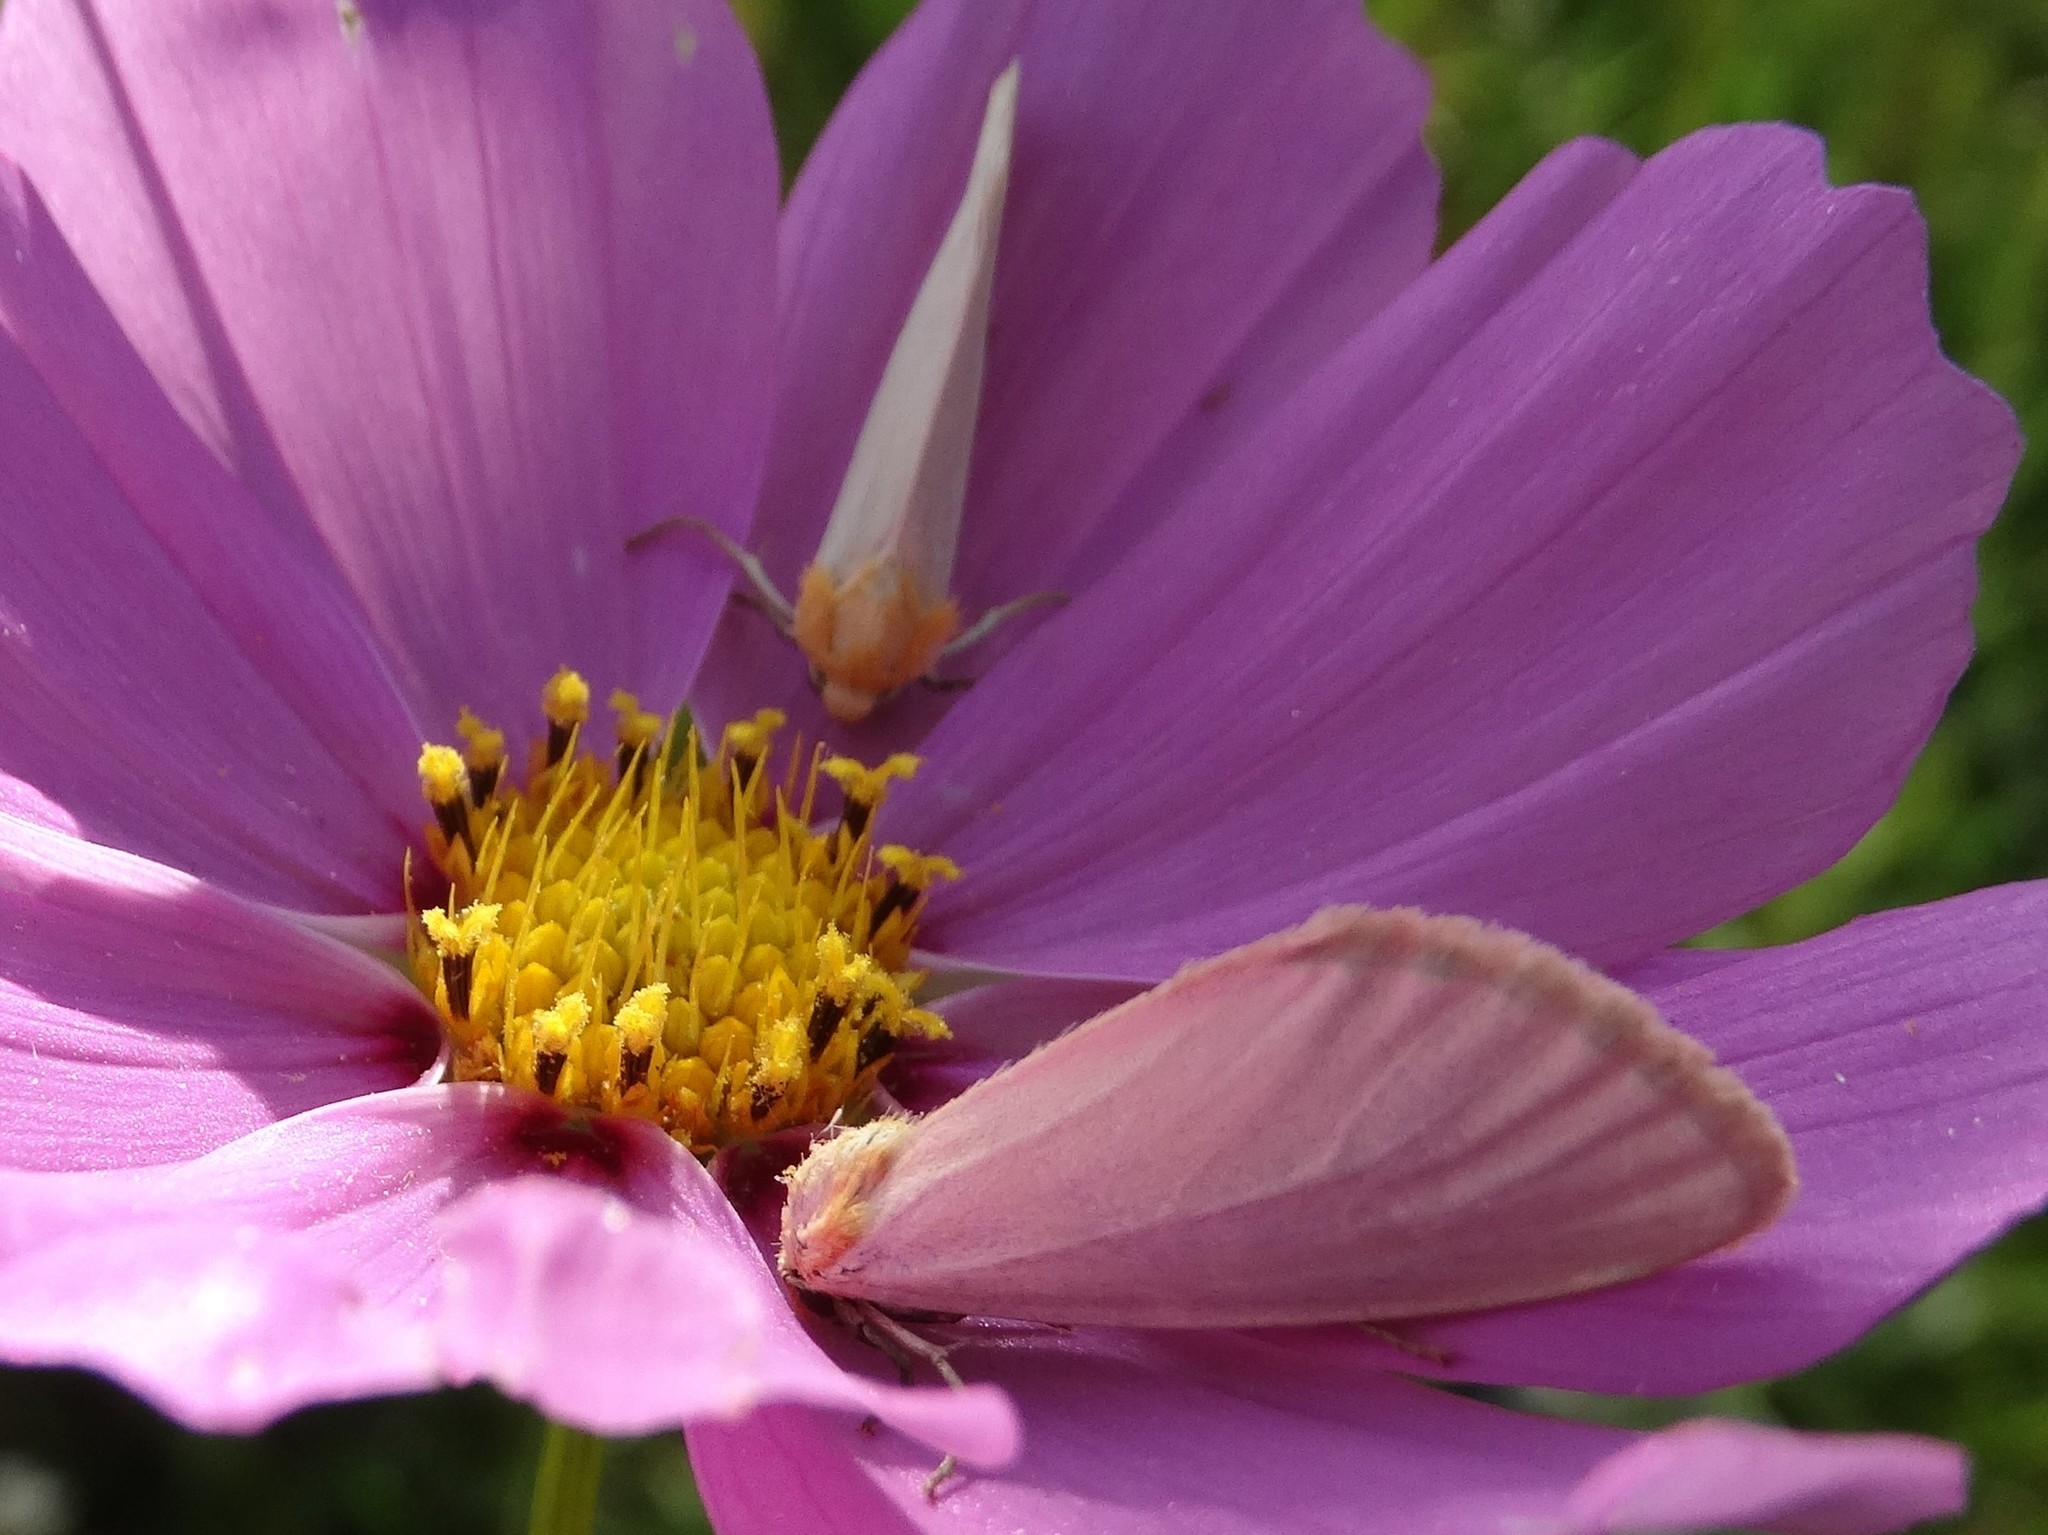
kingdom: Animalia
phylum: Arthropoda
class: Insecta
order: Lepidoptera
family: Noctuidae
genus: Chrysoecia
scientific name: Chrysoecia thoracica
